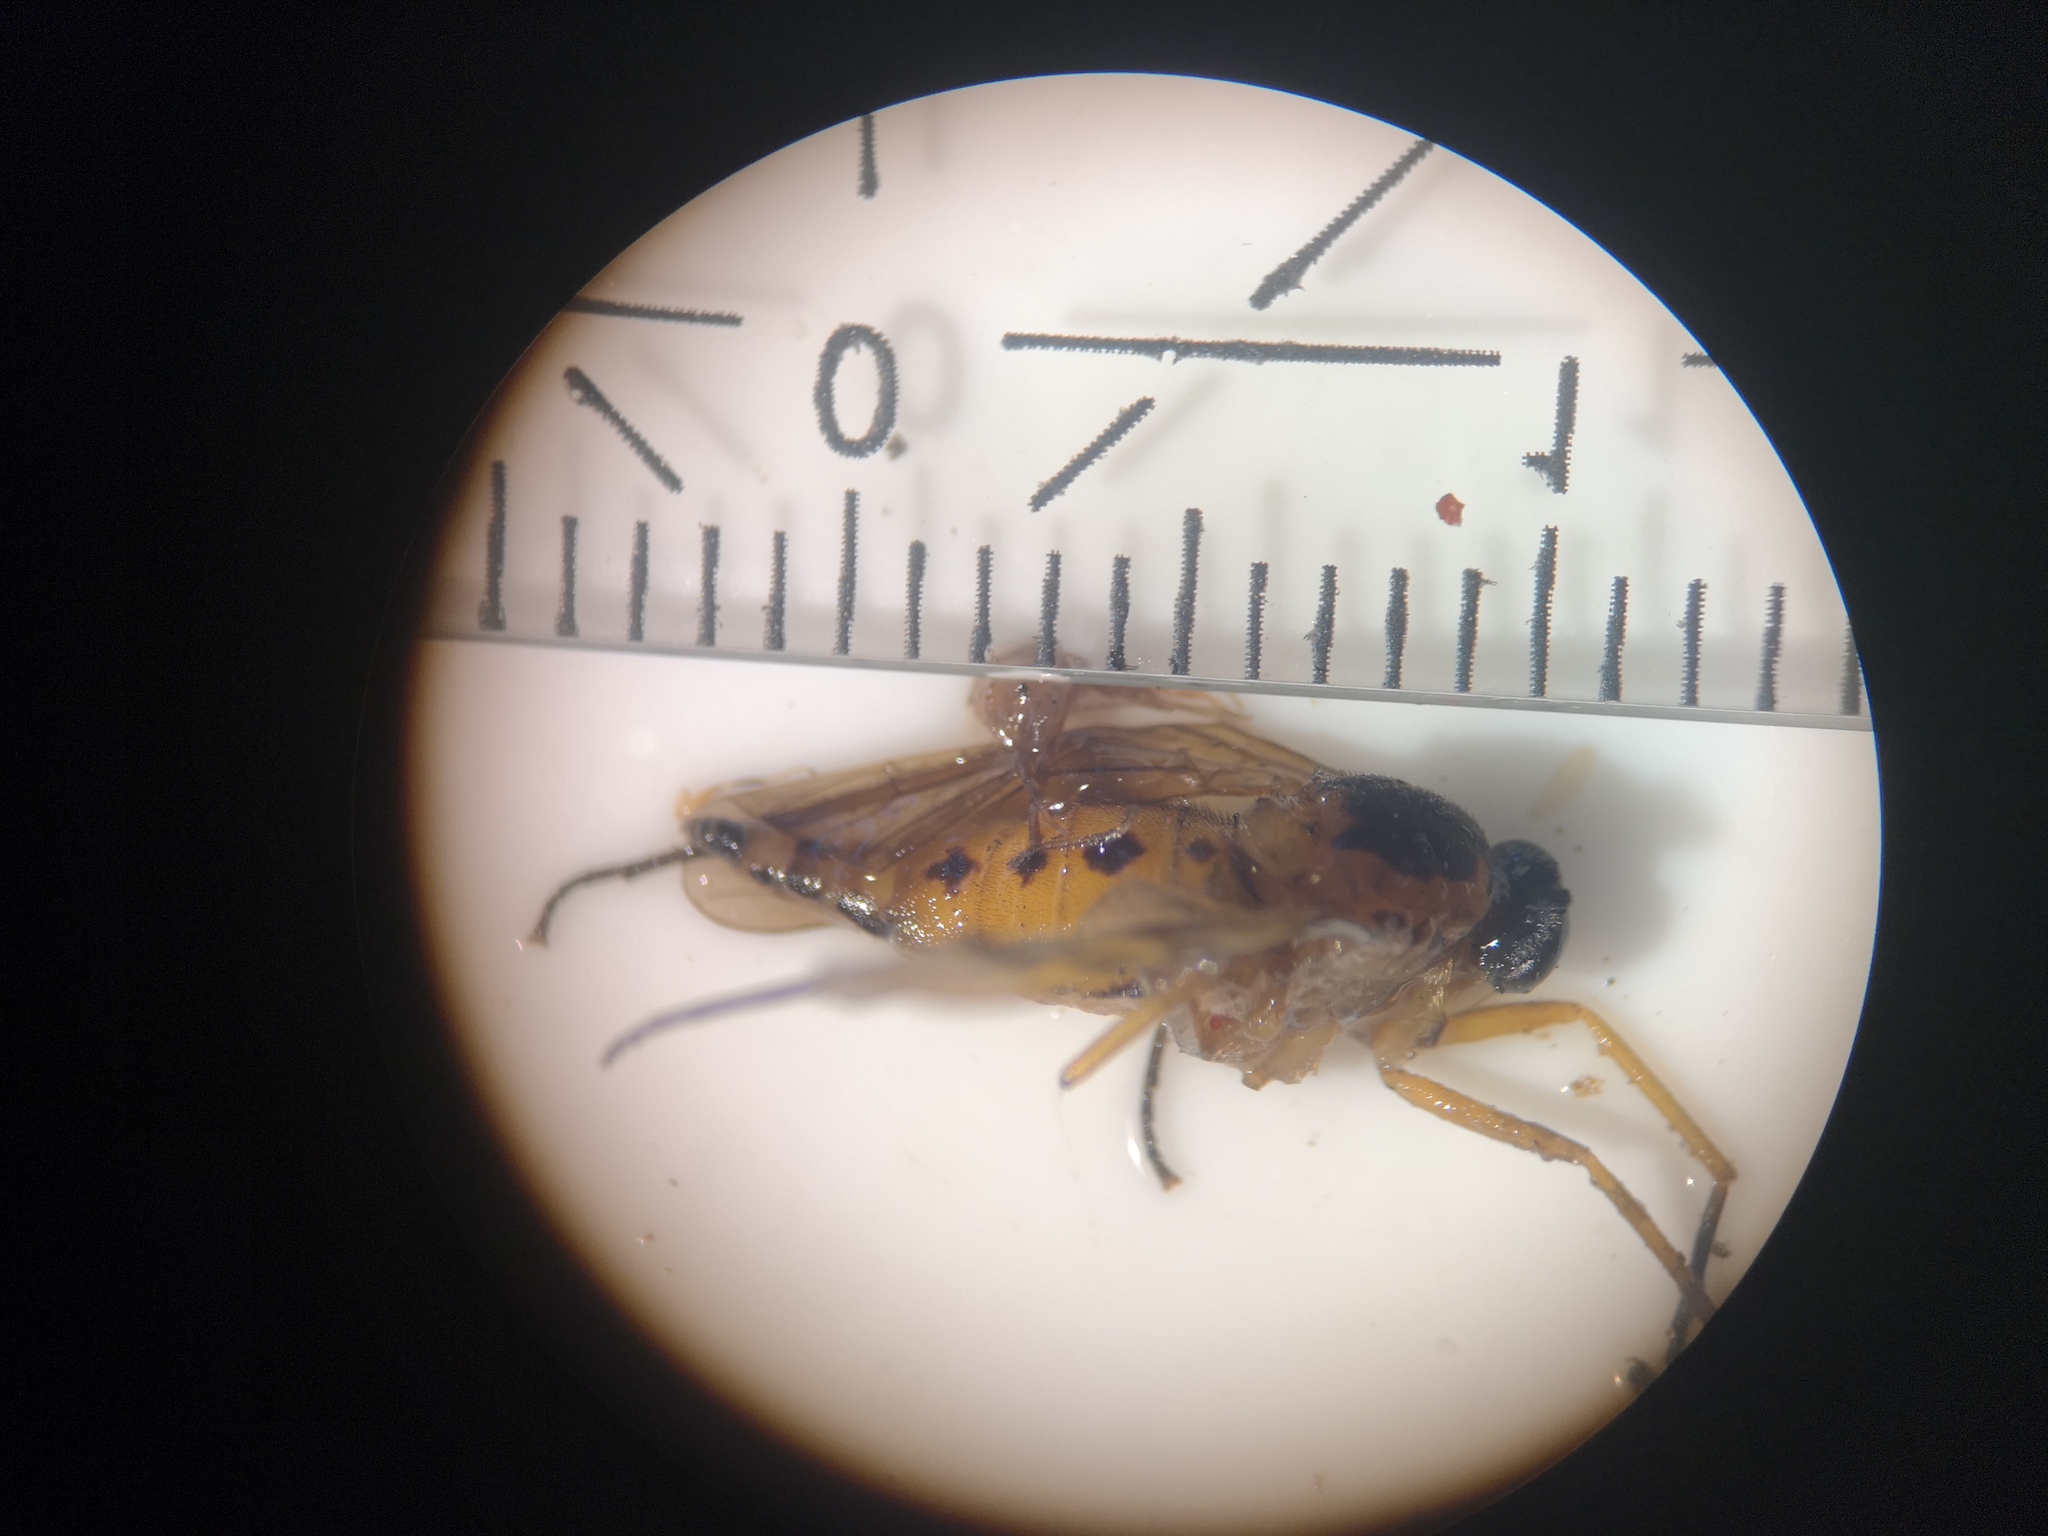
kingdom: Animalia
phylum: Arthropoda
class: Insecta
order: Diptera
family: Rhagionidae
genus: Rhagio
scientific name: Rhagio tringaria
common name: Marsh snipefly
